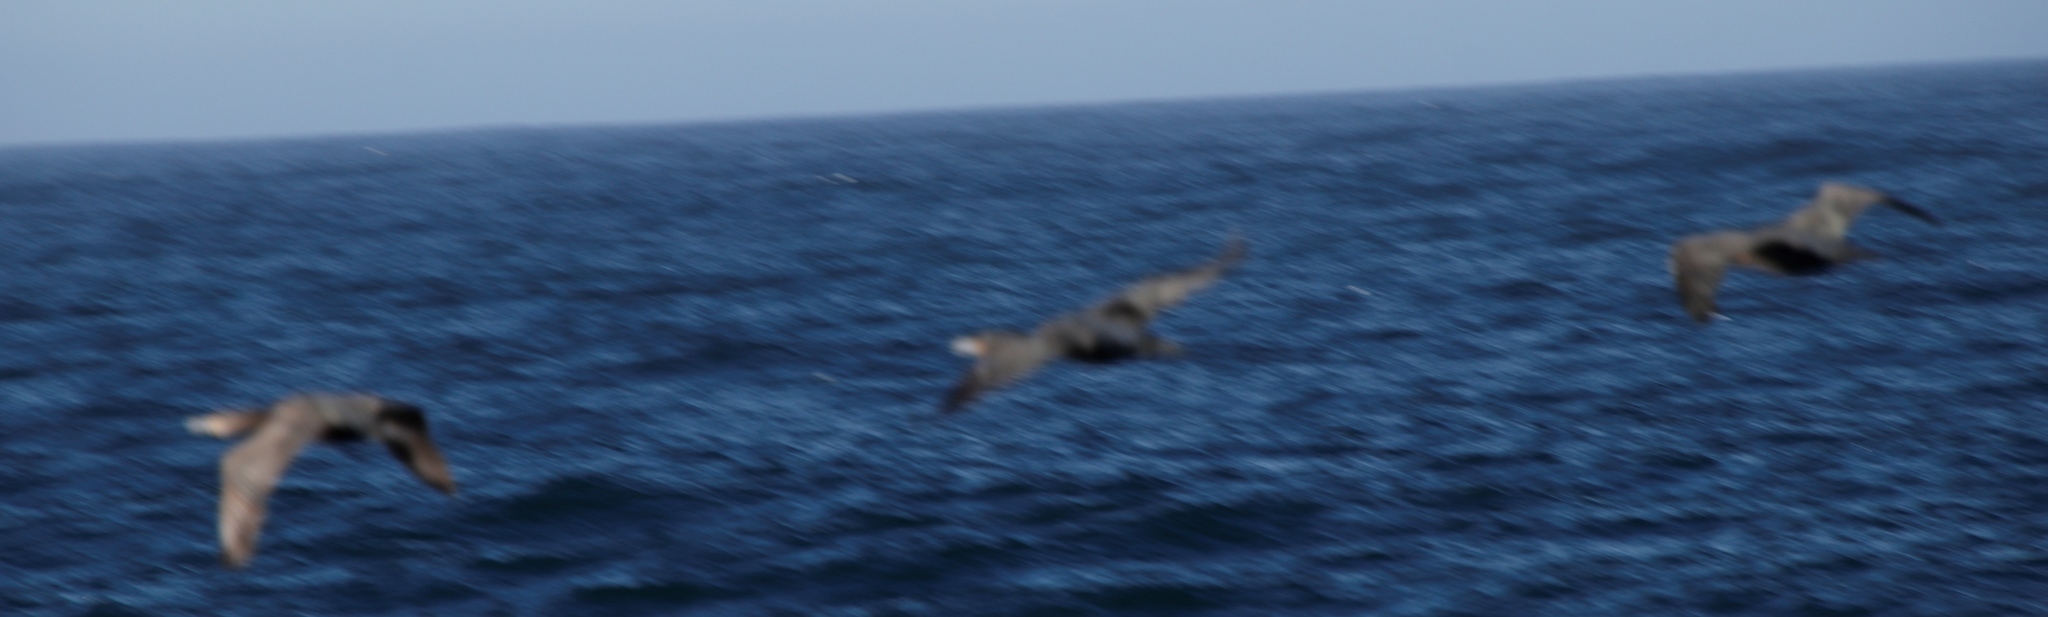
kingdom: Animalia
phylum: Chordata
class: Aves
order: Suliformes
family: Phalacrocoracidae
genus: Phalacrocorax
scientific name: Phalacrocorax capensis
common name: Cape cormorant
